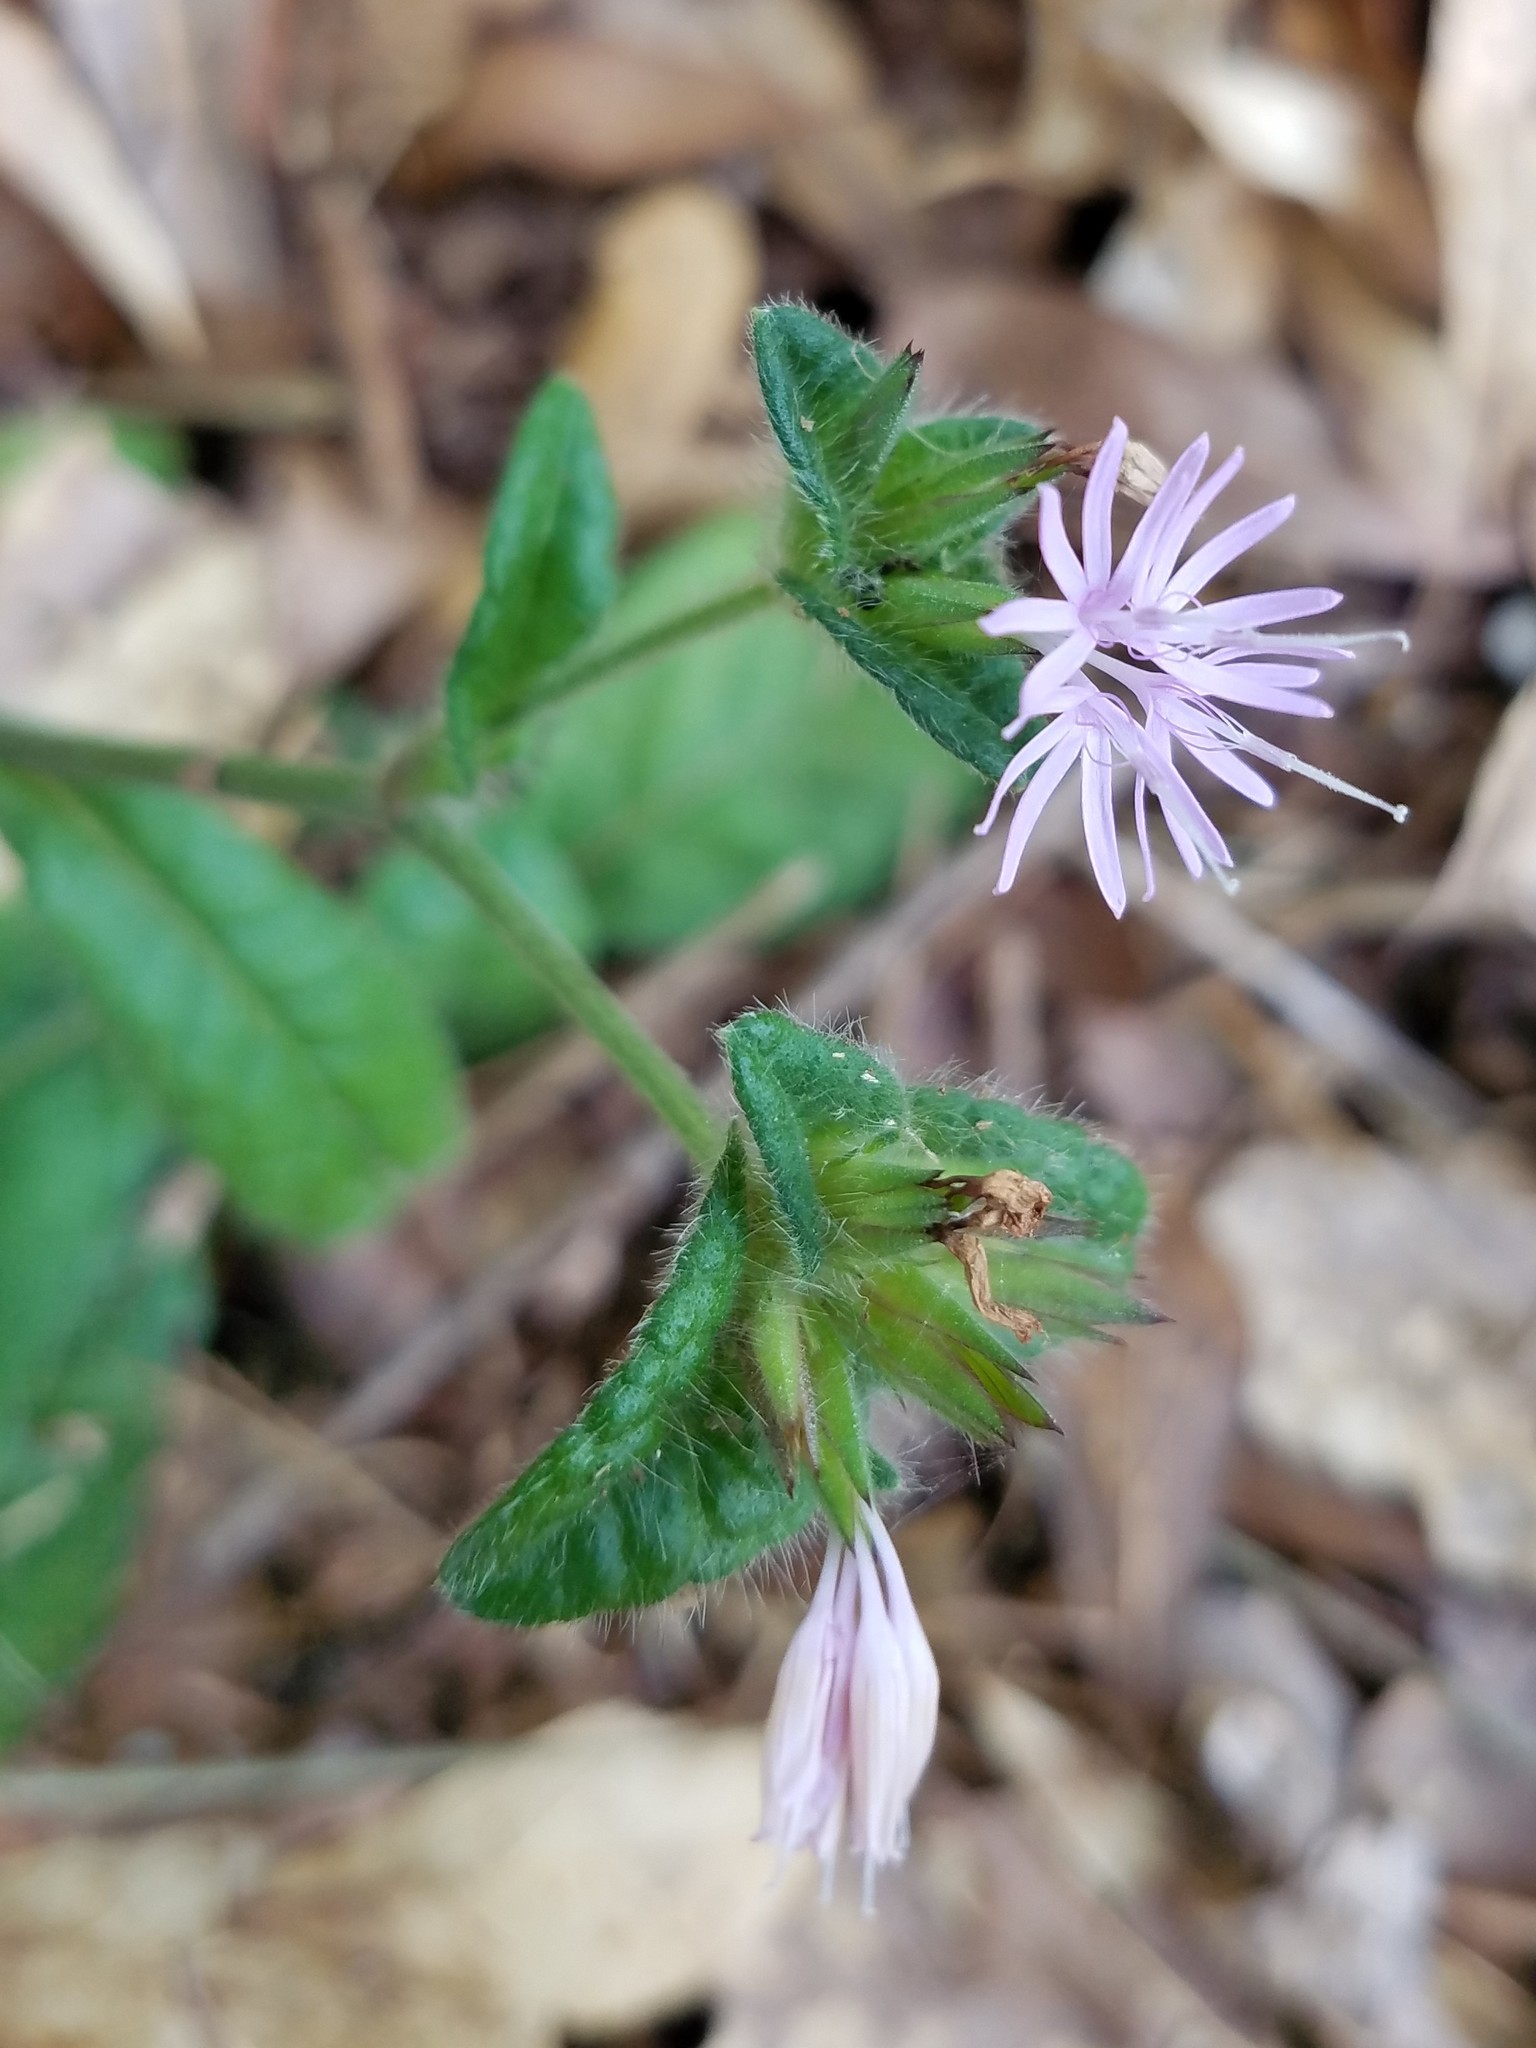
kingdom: Plantae
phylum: Tracheophyta
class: Magnoliopsida
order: Asterales
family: Asteraceae
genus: Elephantopus
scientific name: Elephantopus tomentosus
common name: Tobacco-weed
